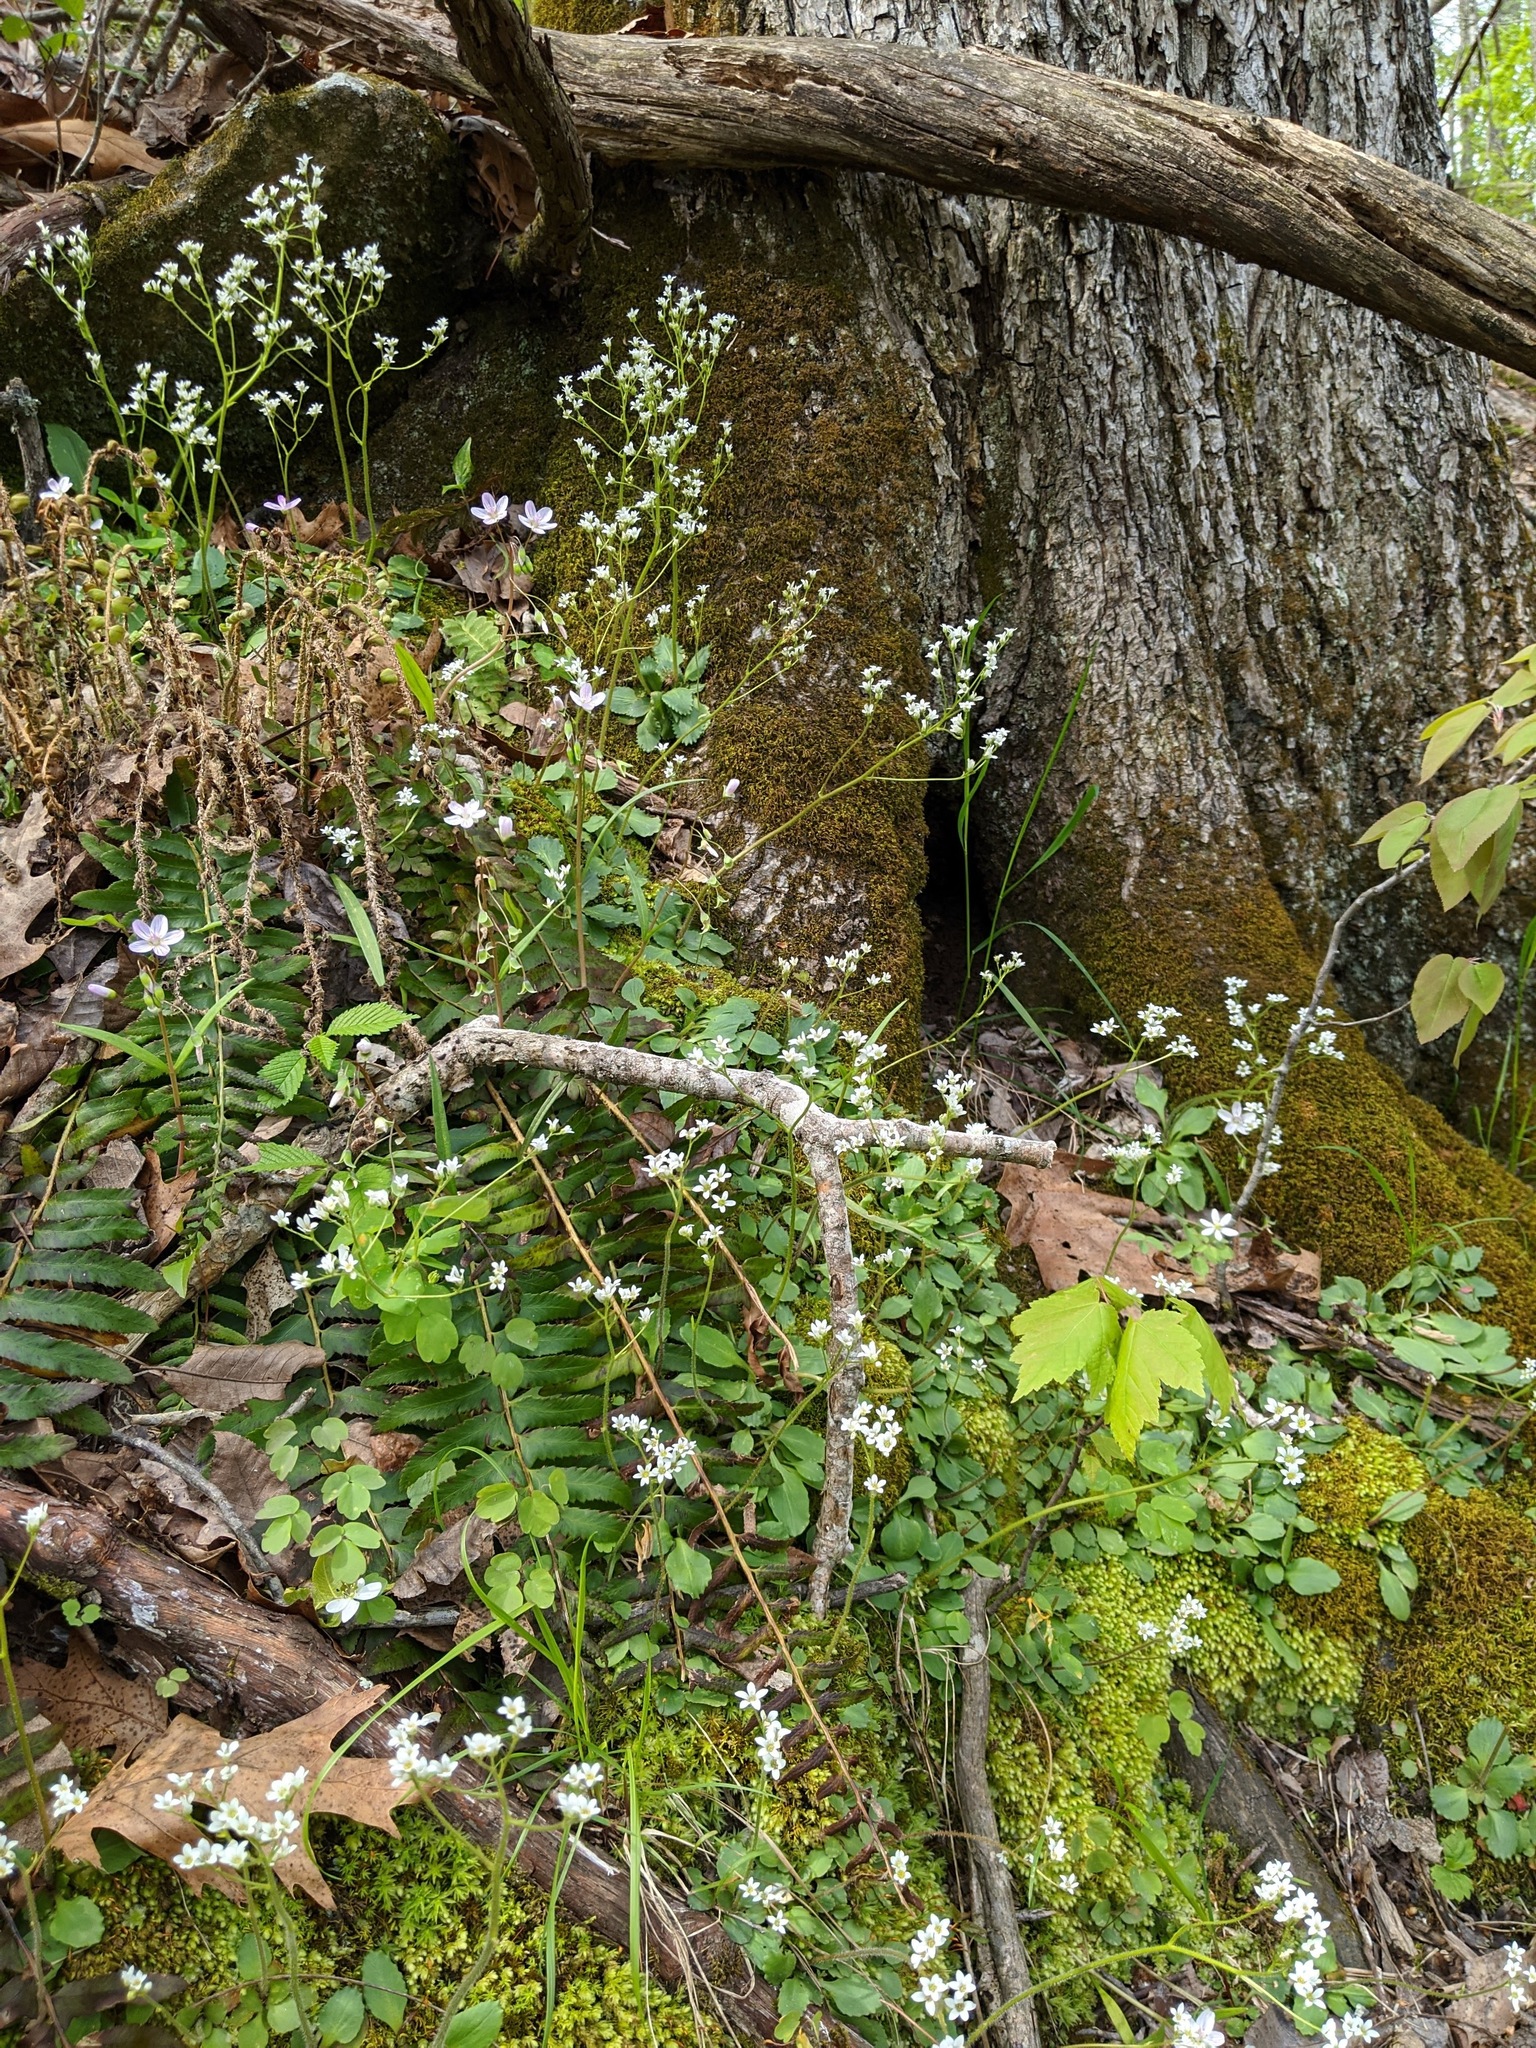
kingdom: Plantae
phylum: Tracheophyta
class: Magnoliopsida
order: Saxifragales
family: Saxifragaceae
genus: Micranthes
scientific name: Micranthes virginiensis
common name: Early saxifrage
